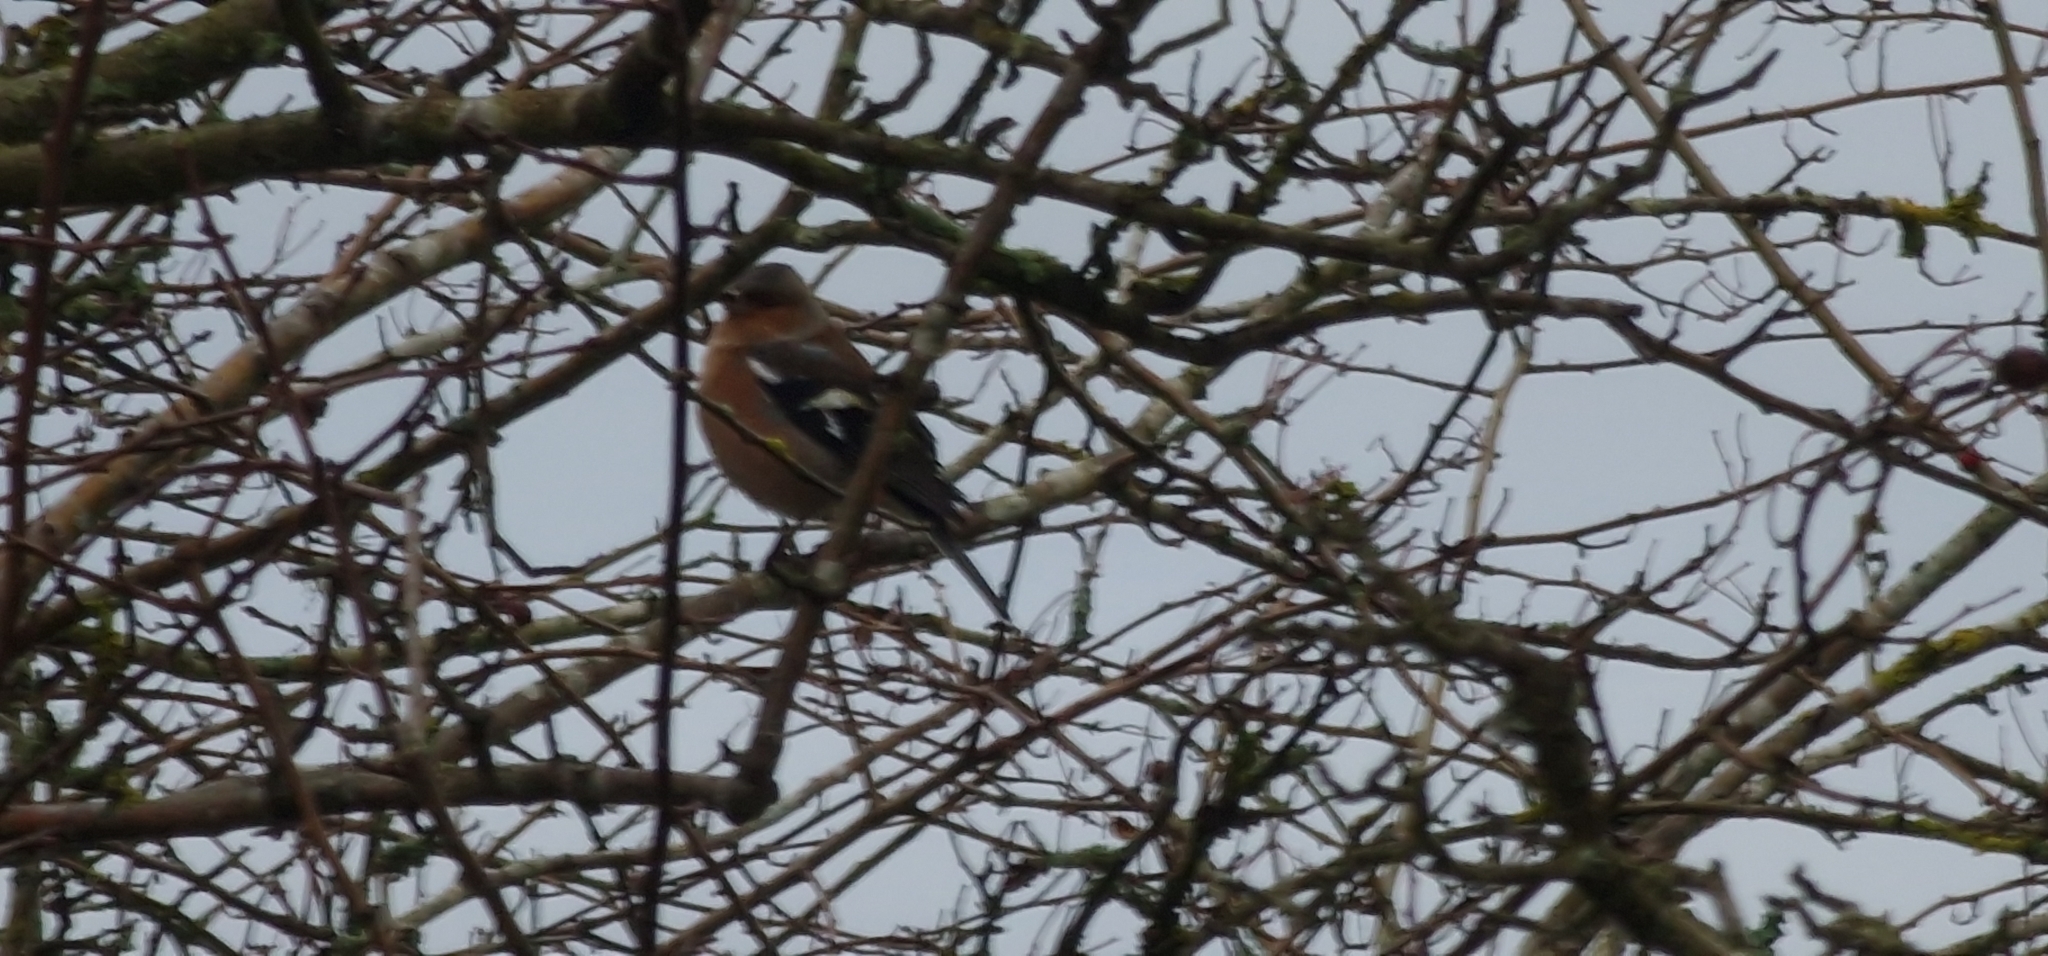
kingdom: Animalia
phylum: Chordata
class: Aves
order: Passeriformes
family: Fringillidae
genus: Fringilla
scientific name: Fringilla coelebs
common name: Common chaffinch
